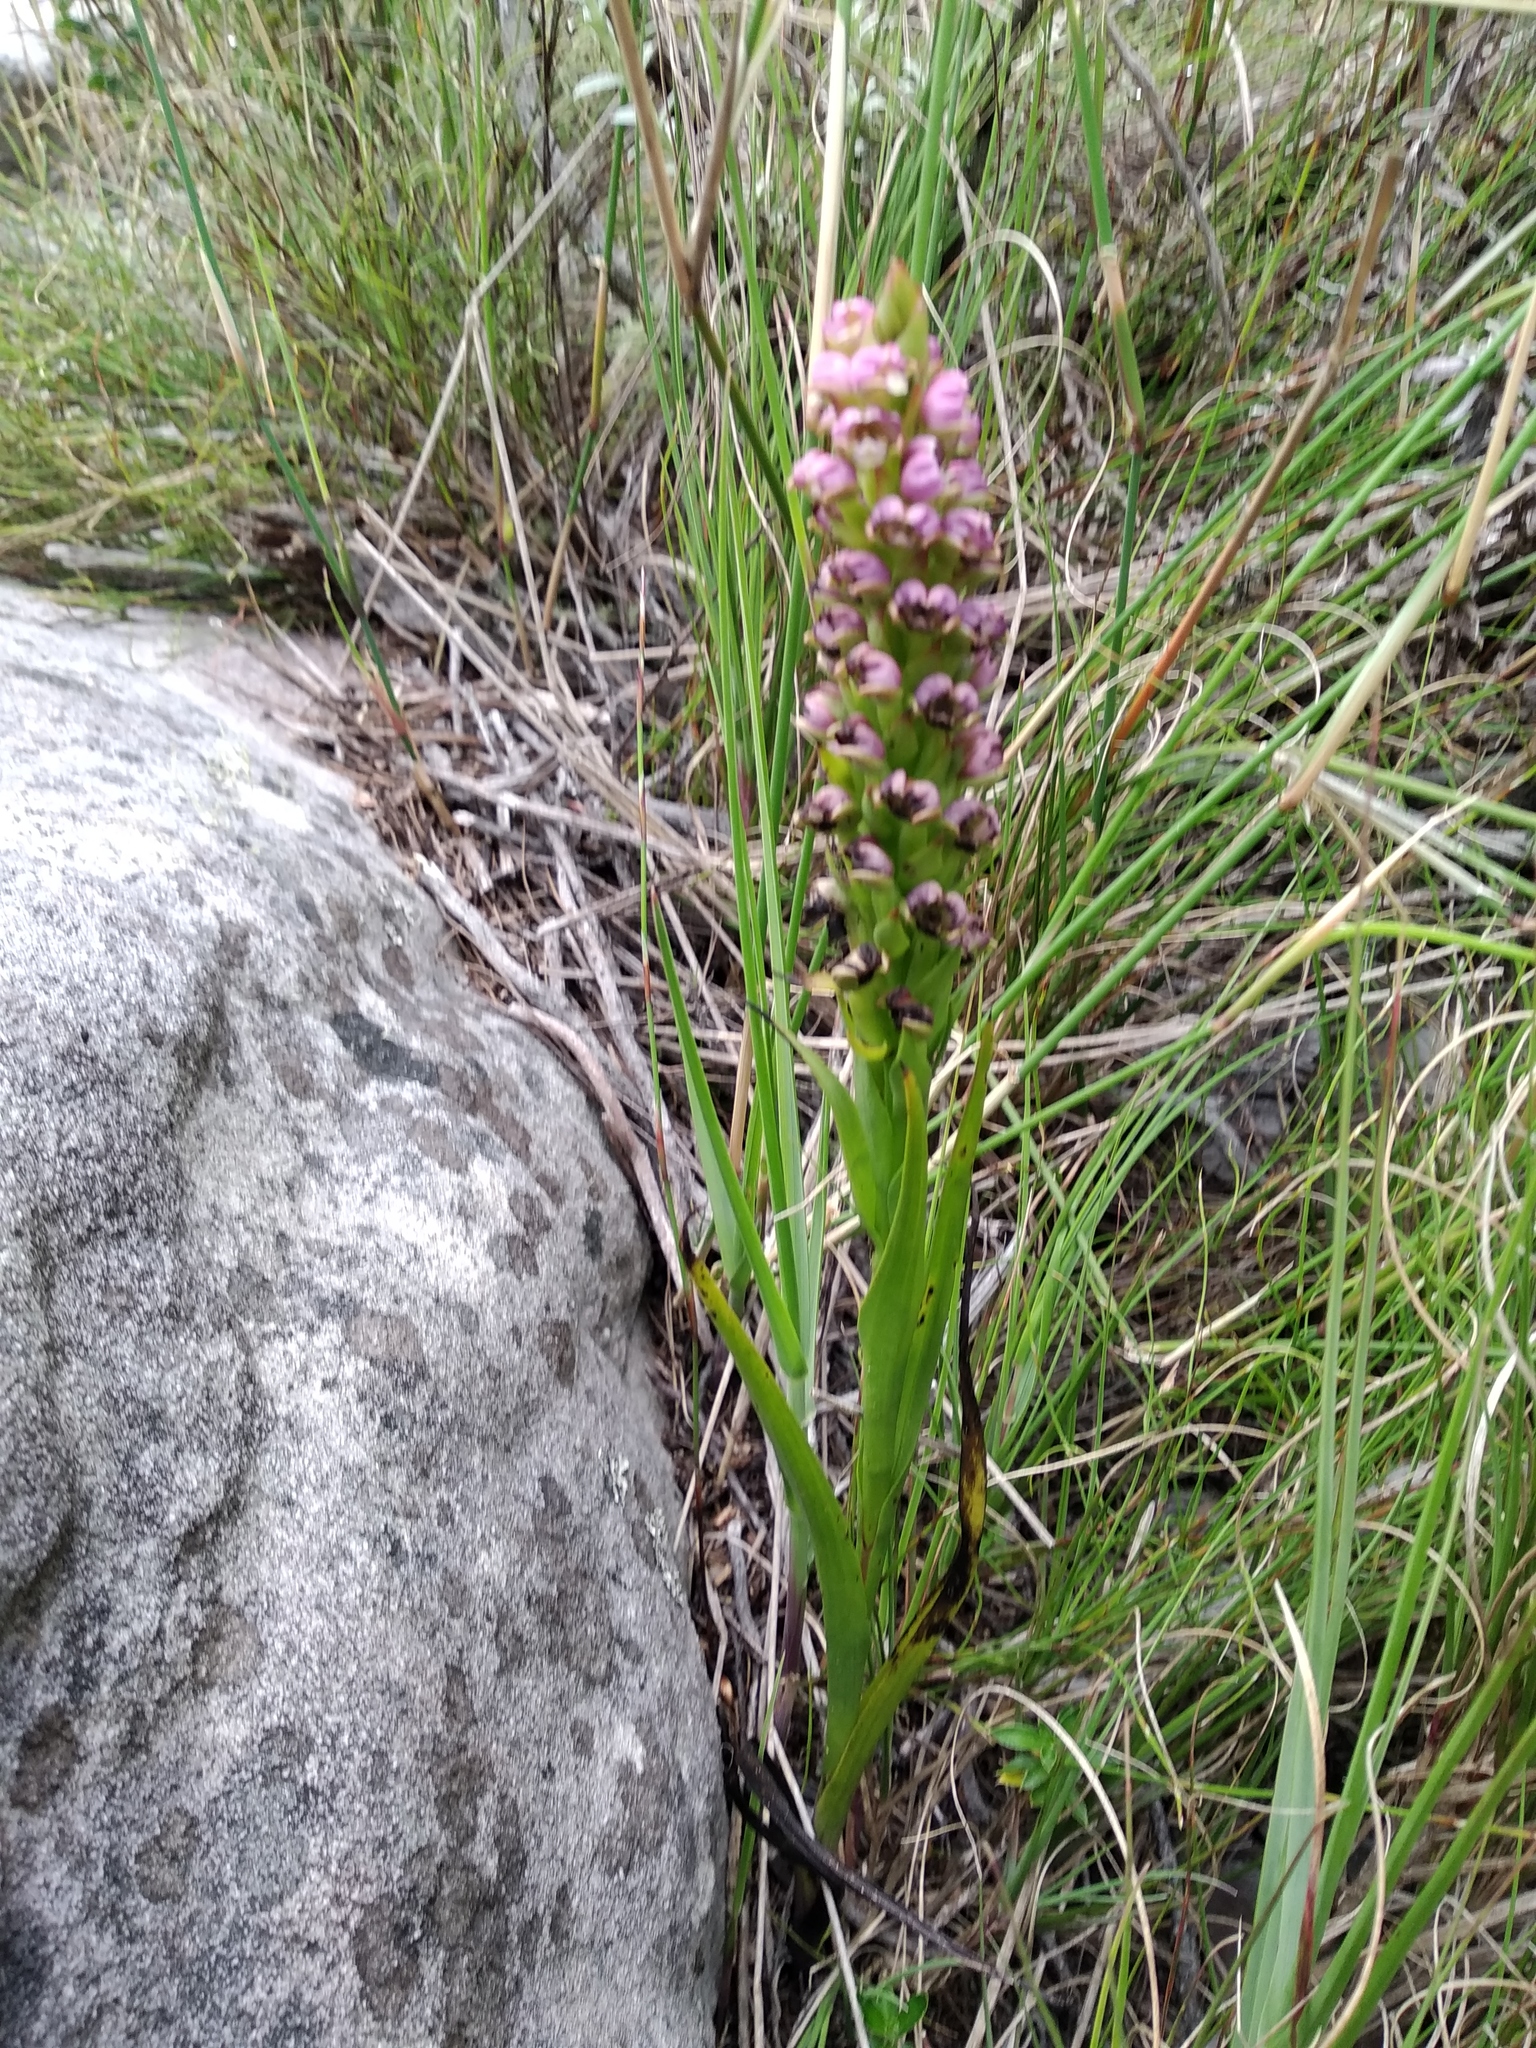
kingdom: Plantae
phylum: Tracheophyta
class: Liliopsida
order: Asparagales
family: Orchidaceae
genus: Evotella
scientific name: Evotella carnosa
